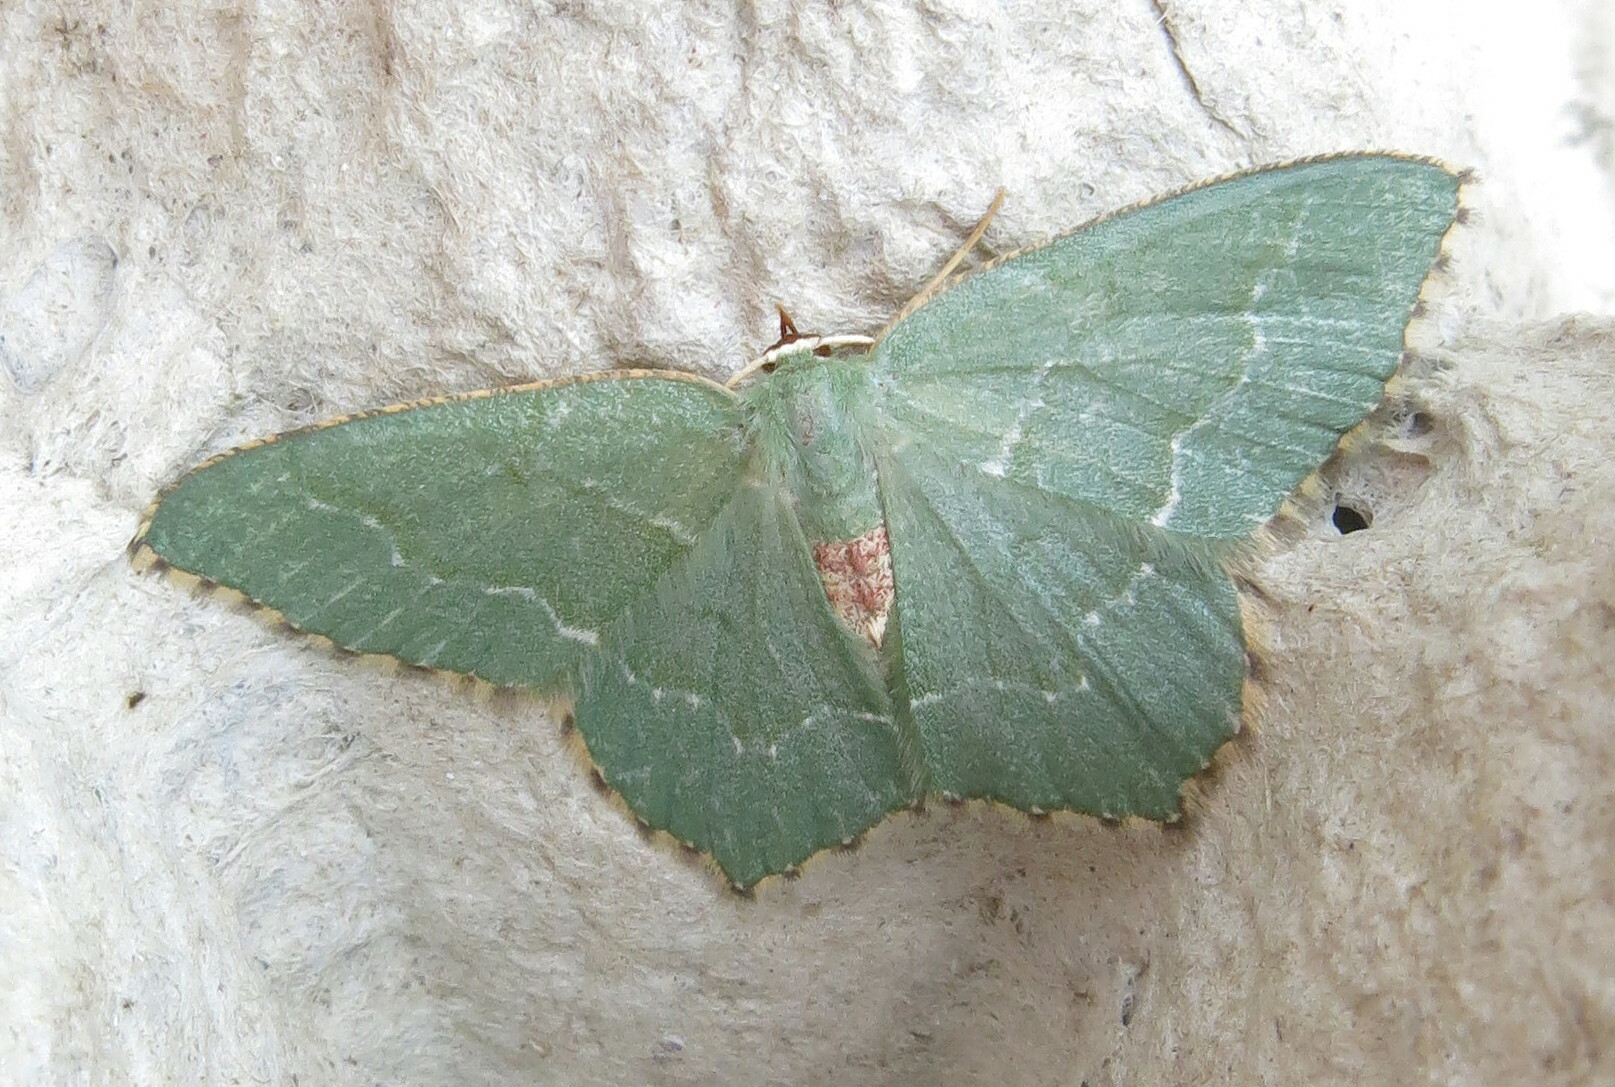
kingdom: Animalia
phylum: Arthropoda
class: Insecta
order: Lepidoptera
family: Geometridae
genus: Hemithea
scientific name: Hemithea aestivaria
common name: Common emerald
